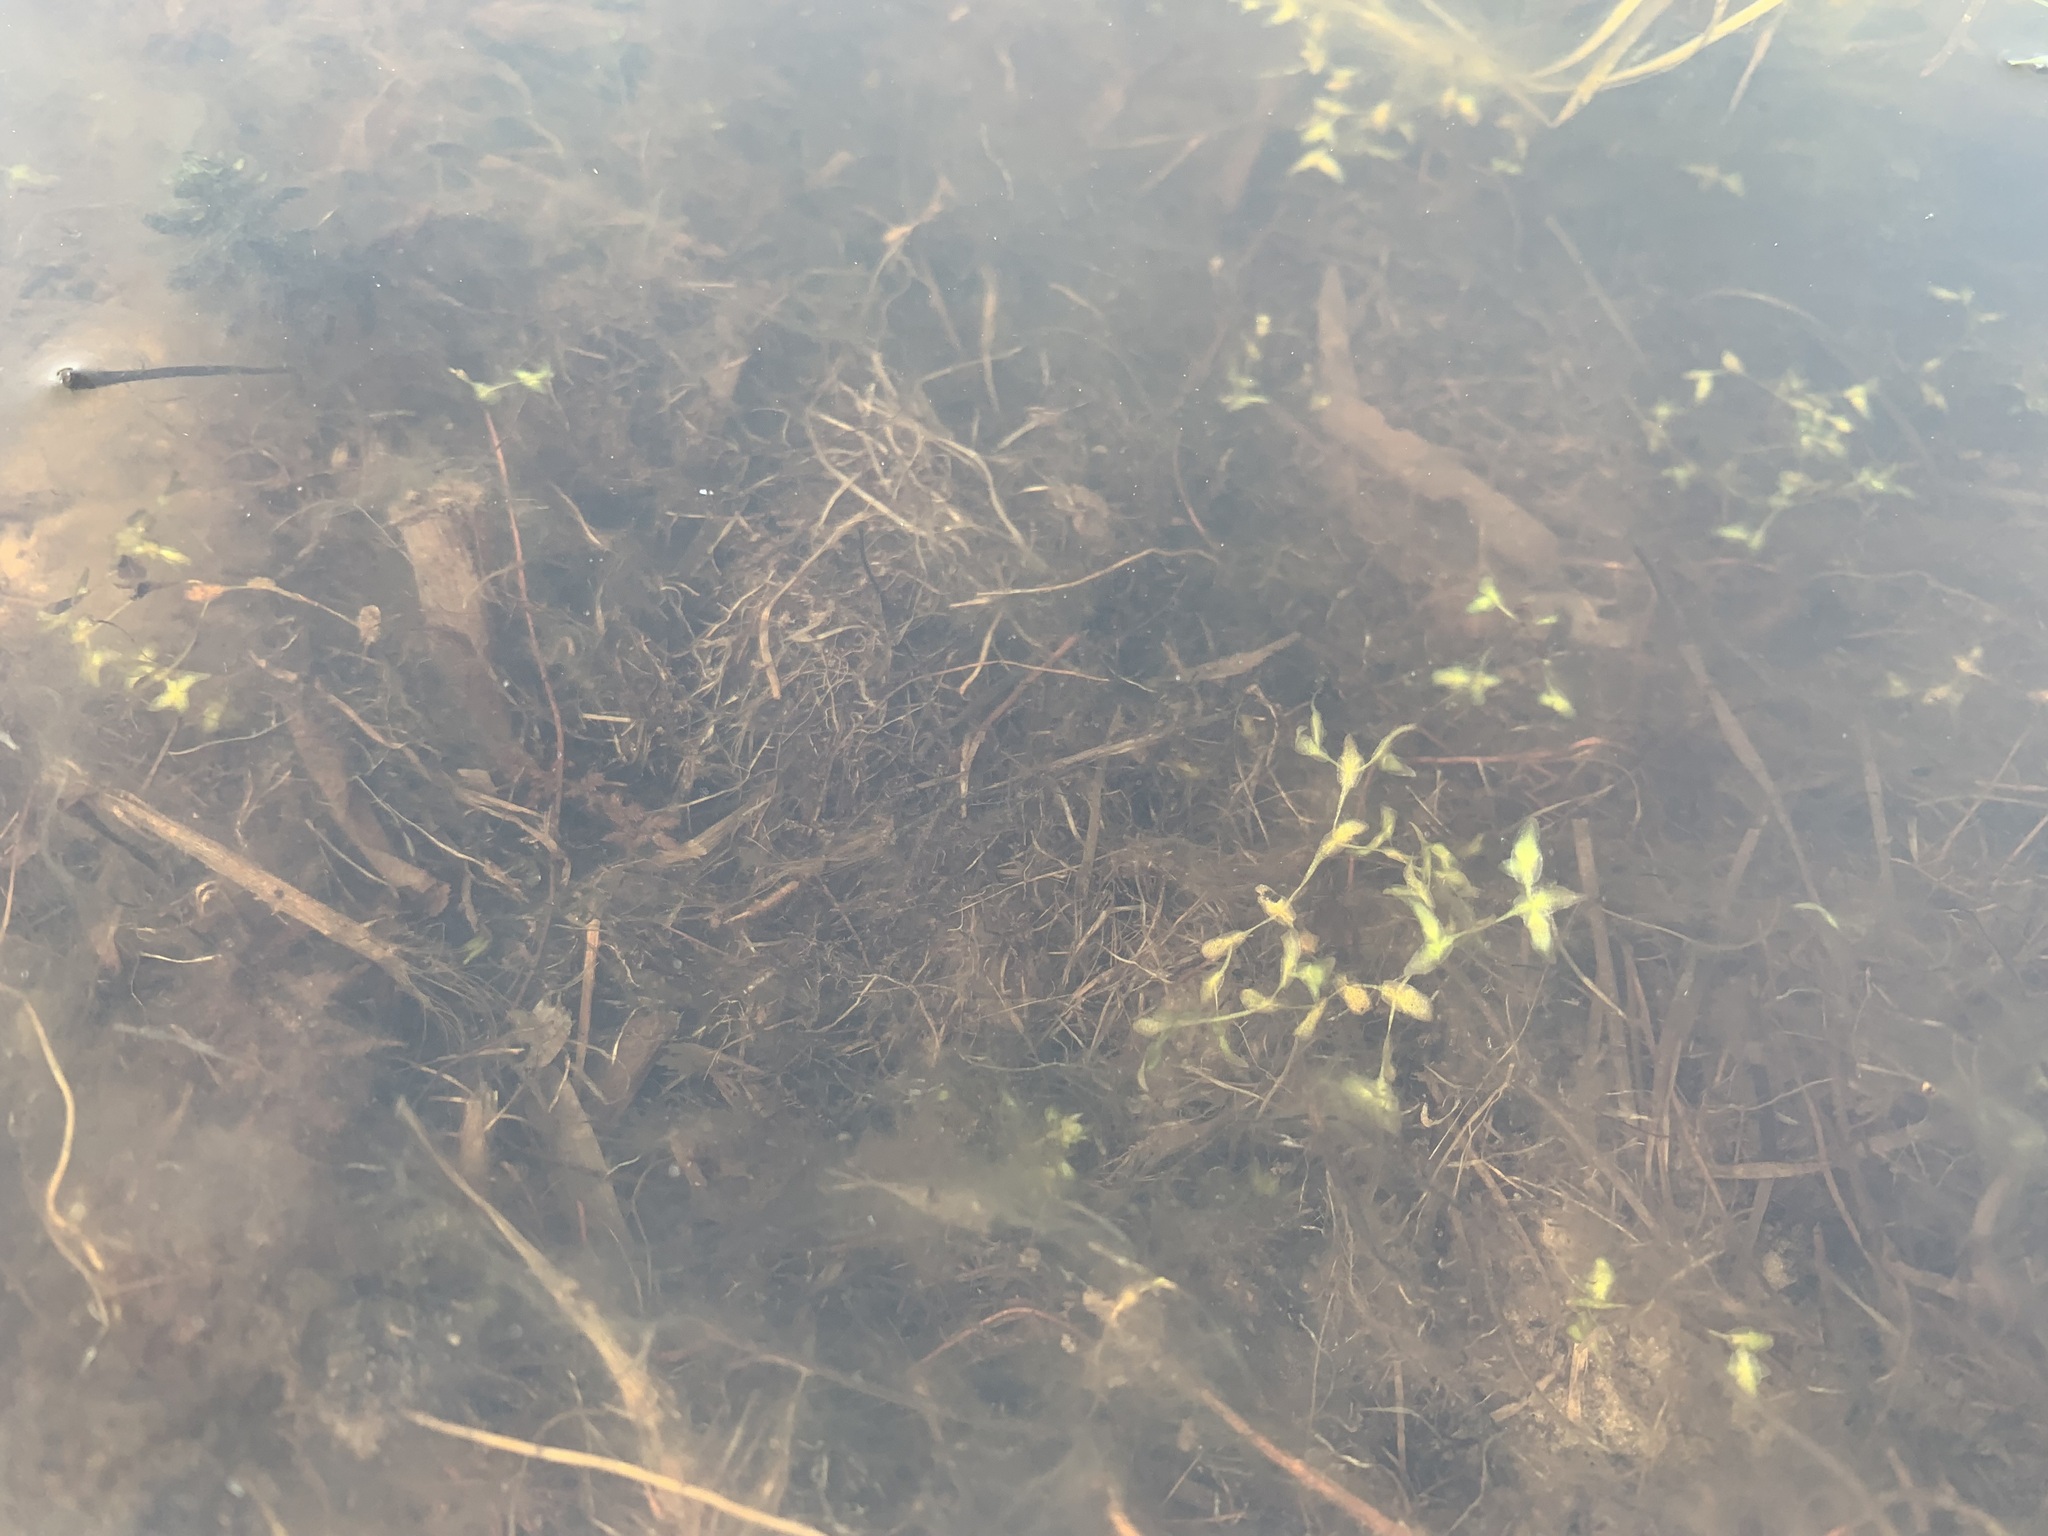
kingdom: Plantae
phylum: Tracheophyta
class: Liliopsida
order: Alismatales
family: Araceae
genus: Lemna
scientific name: Lemna trisulca
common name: Ivy-leaved duckweed
